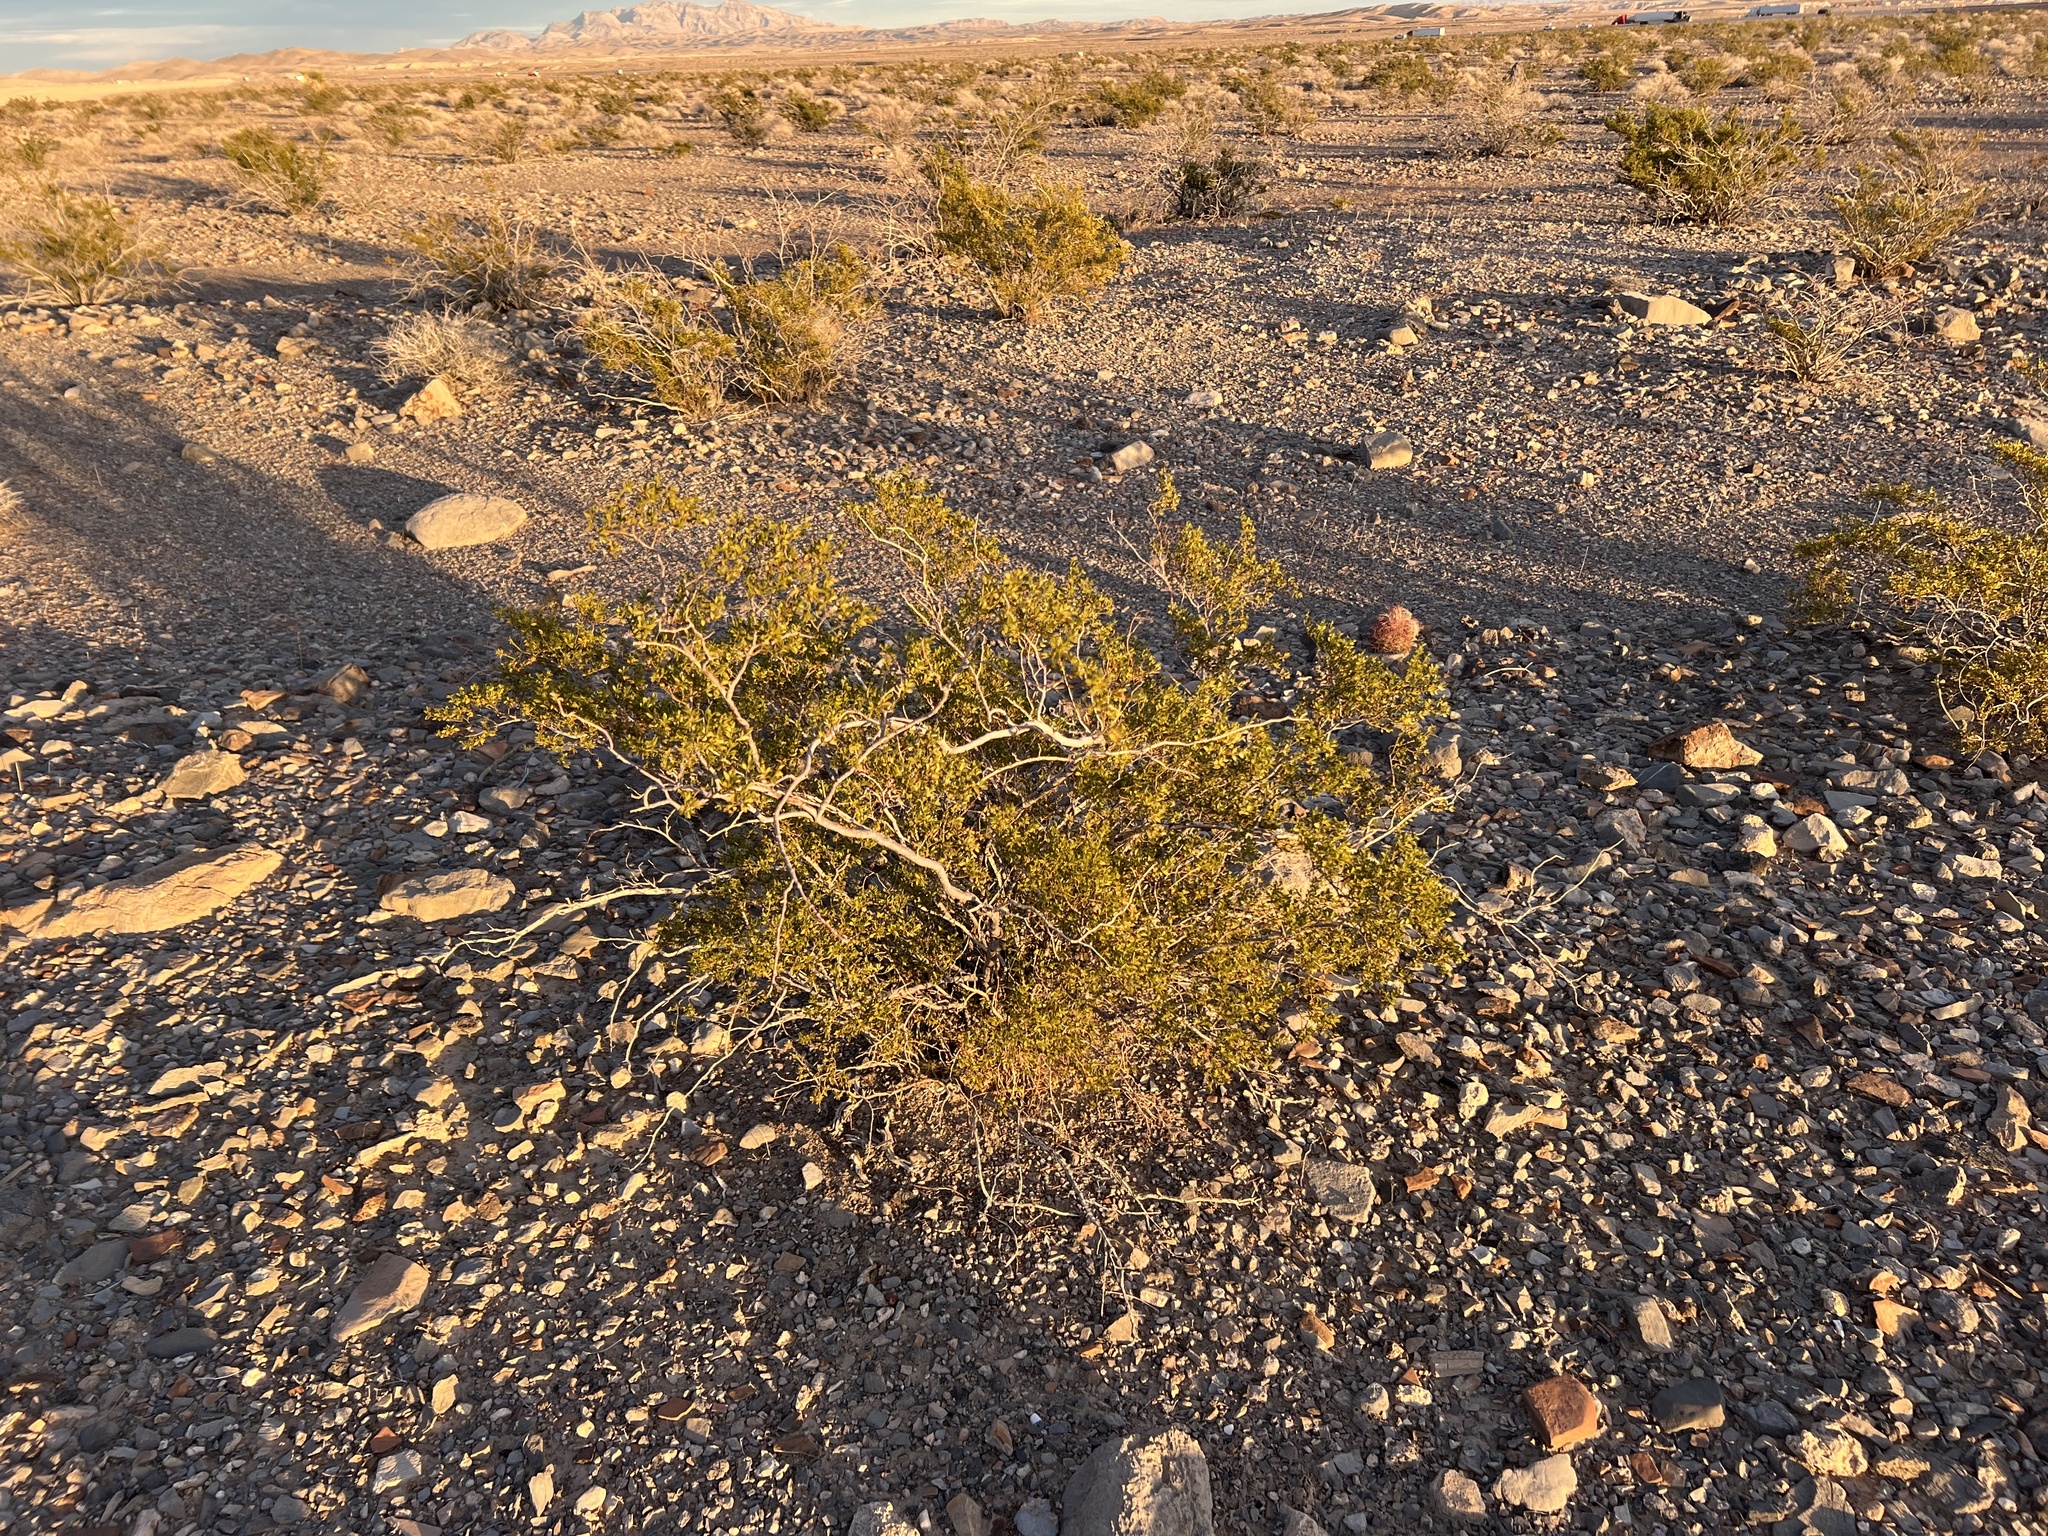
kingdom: Plantae
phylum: Tracheophyta
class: Magnoliopsida
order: Zygophyllales
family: Zygophyllaceae
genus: Larrea
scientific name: Larrea tridentata
